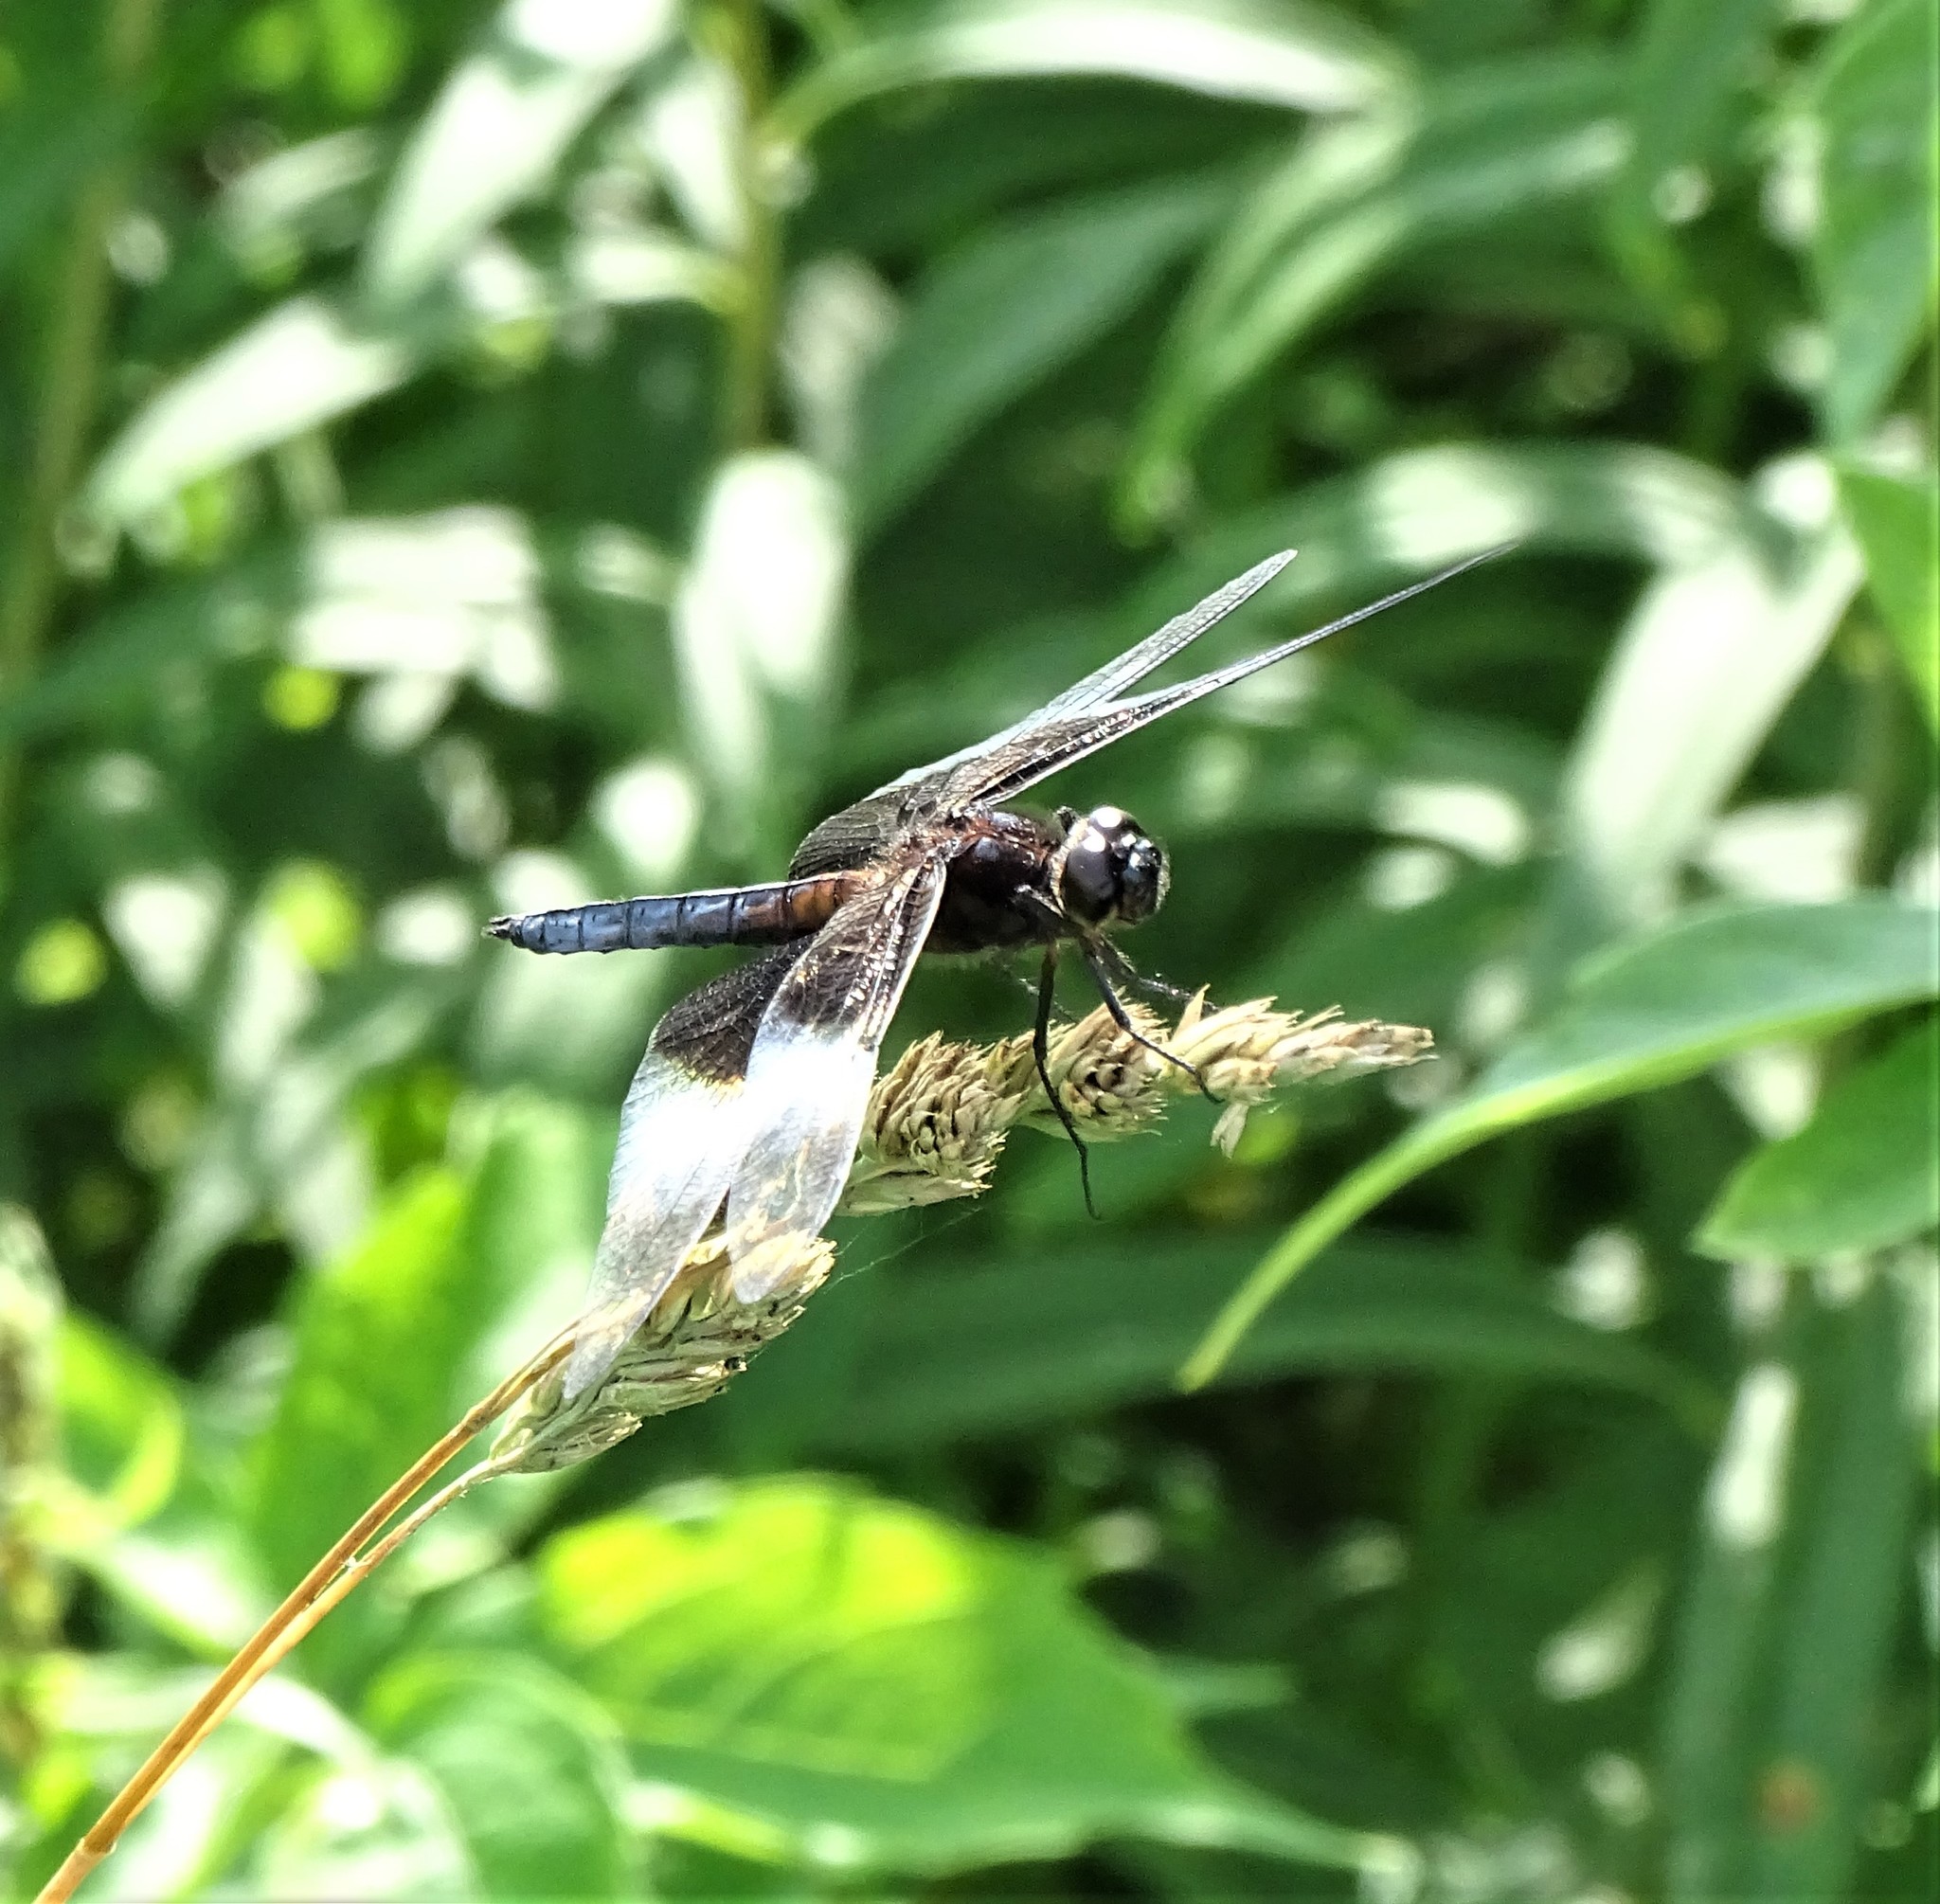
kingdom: Animalia
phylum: Arthropoda
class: Insecta
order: Odonata
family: Libellulidae
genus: Libellula
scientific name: Libellula luctuosa
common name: Widow skimmer
